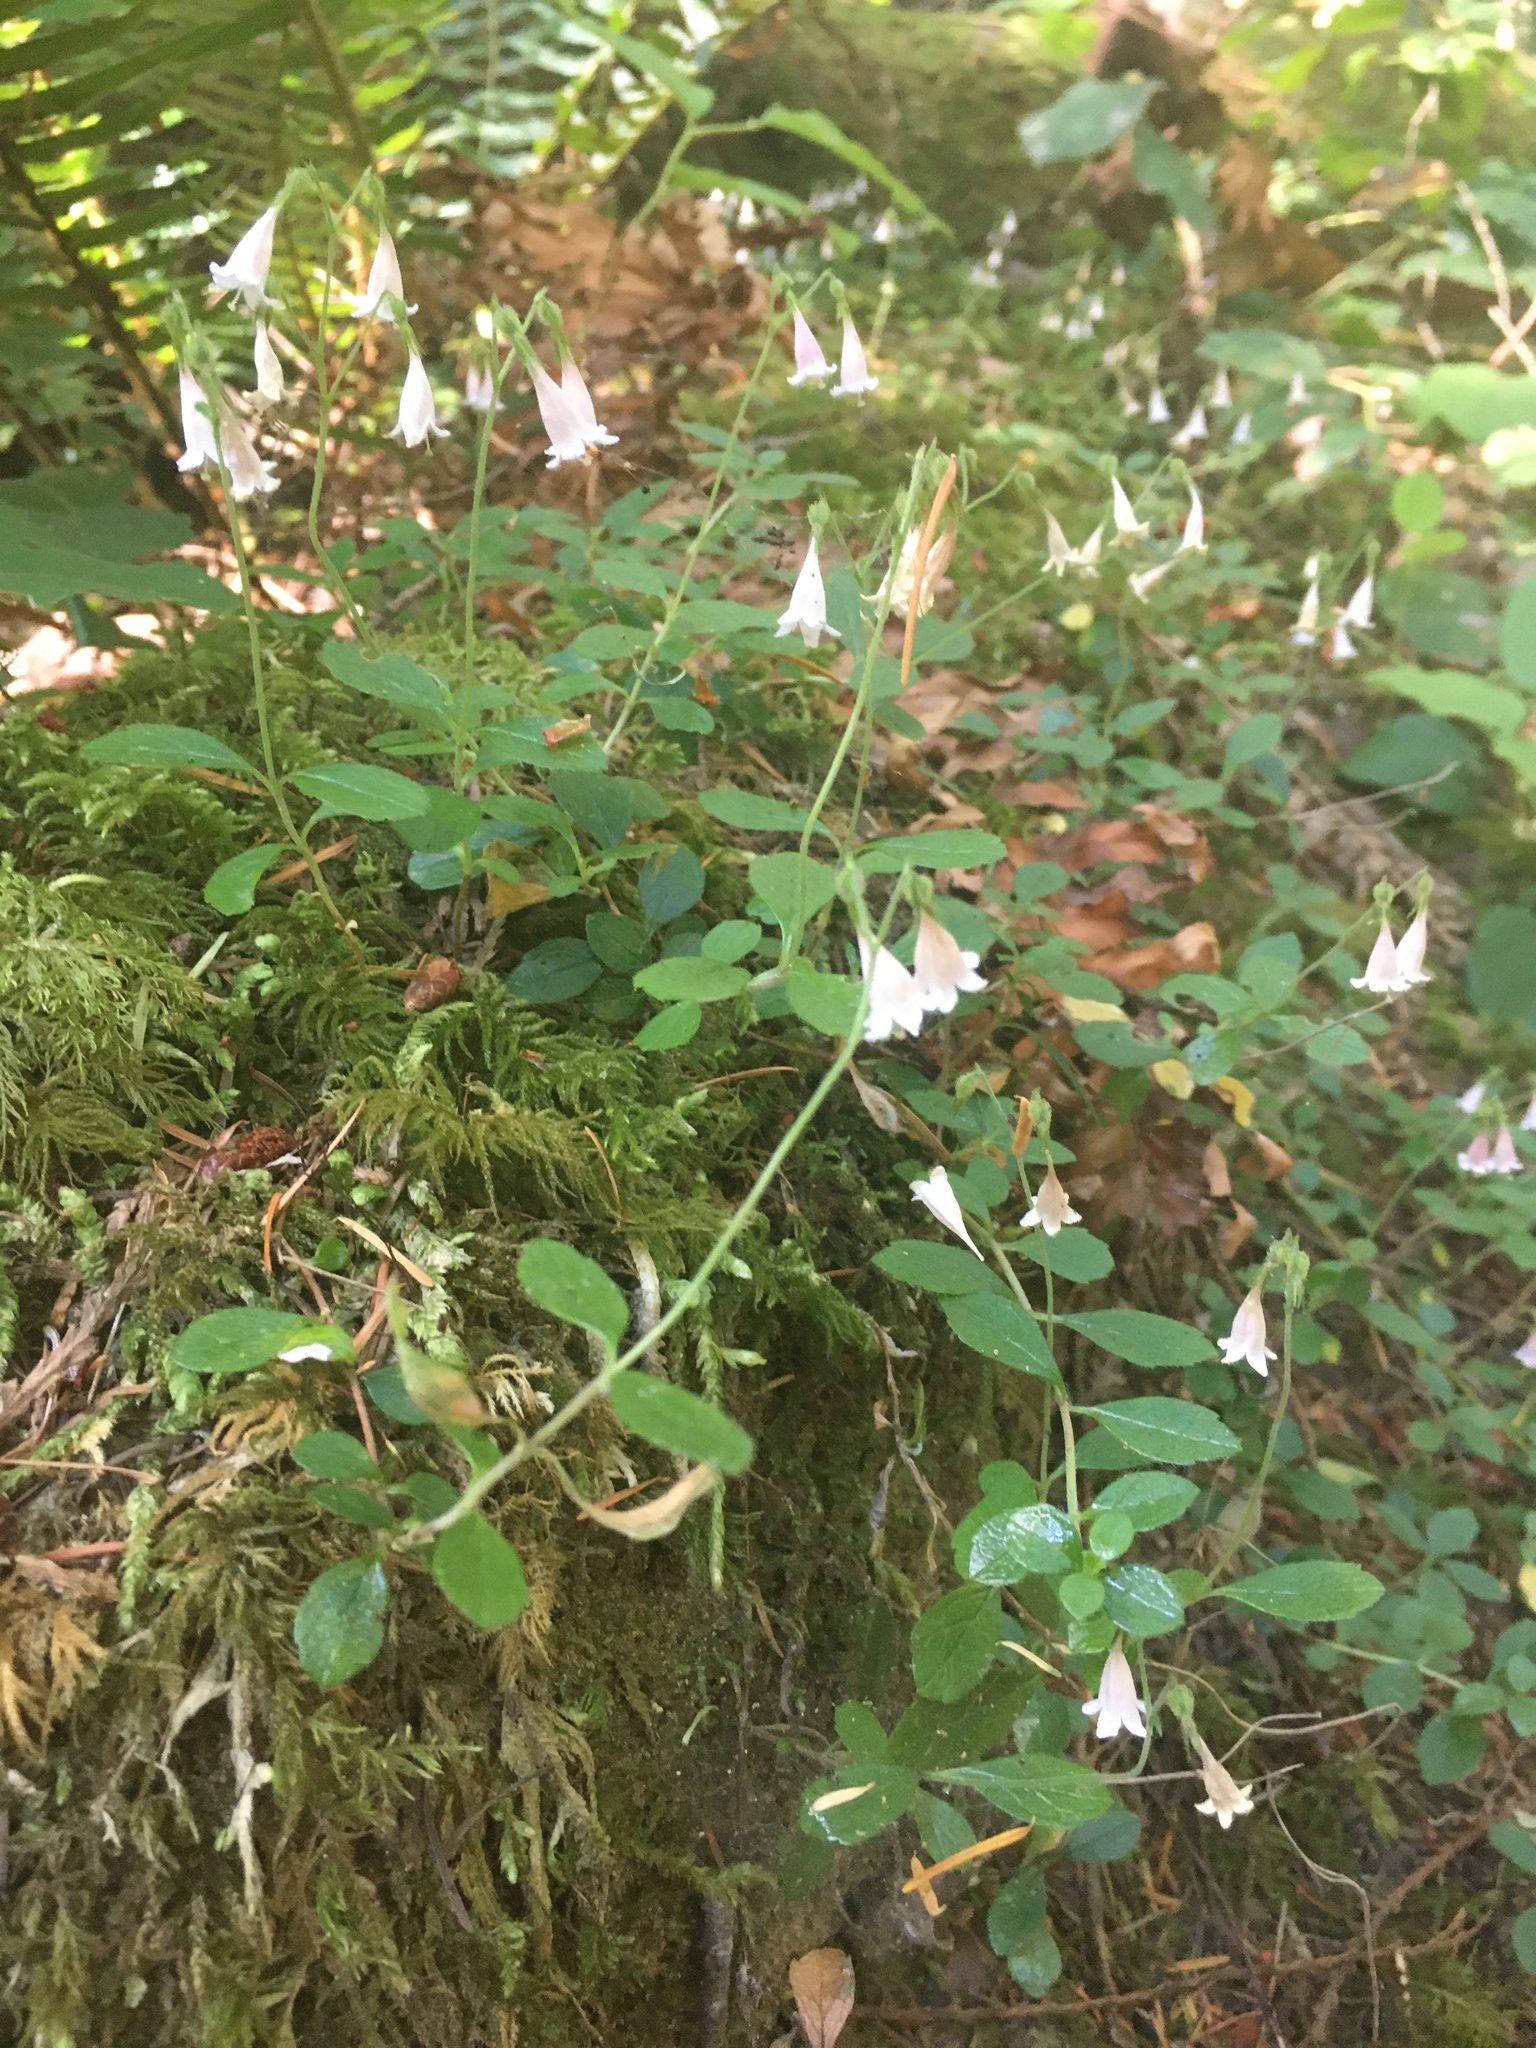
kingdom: Plantae
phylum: Tracheophyta
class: Magnoliopsida
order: Dipsacales
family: Caprifoliaceae
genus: Linnaea
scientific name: Linnaea borealis
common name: Twinflower
